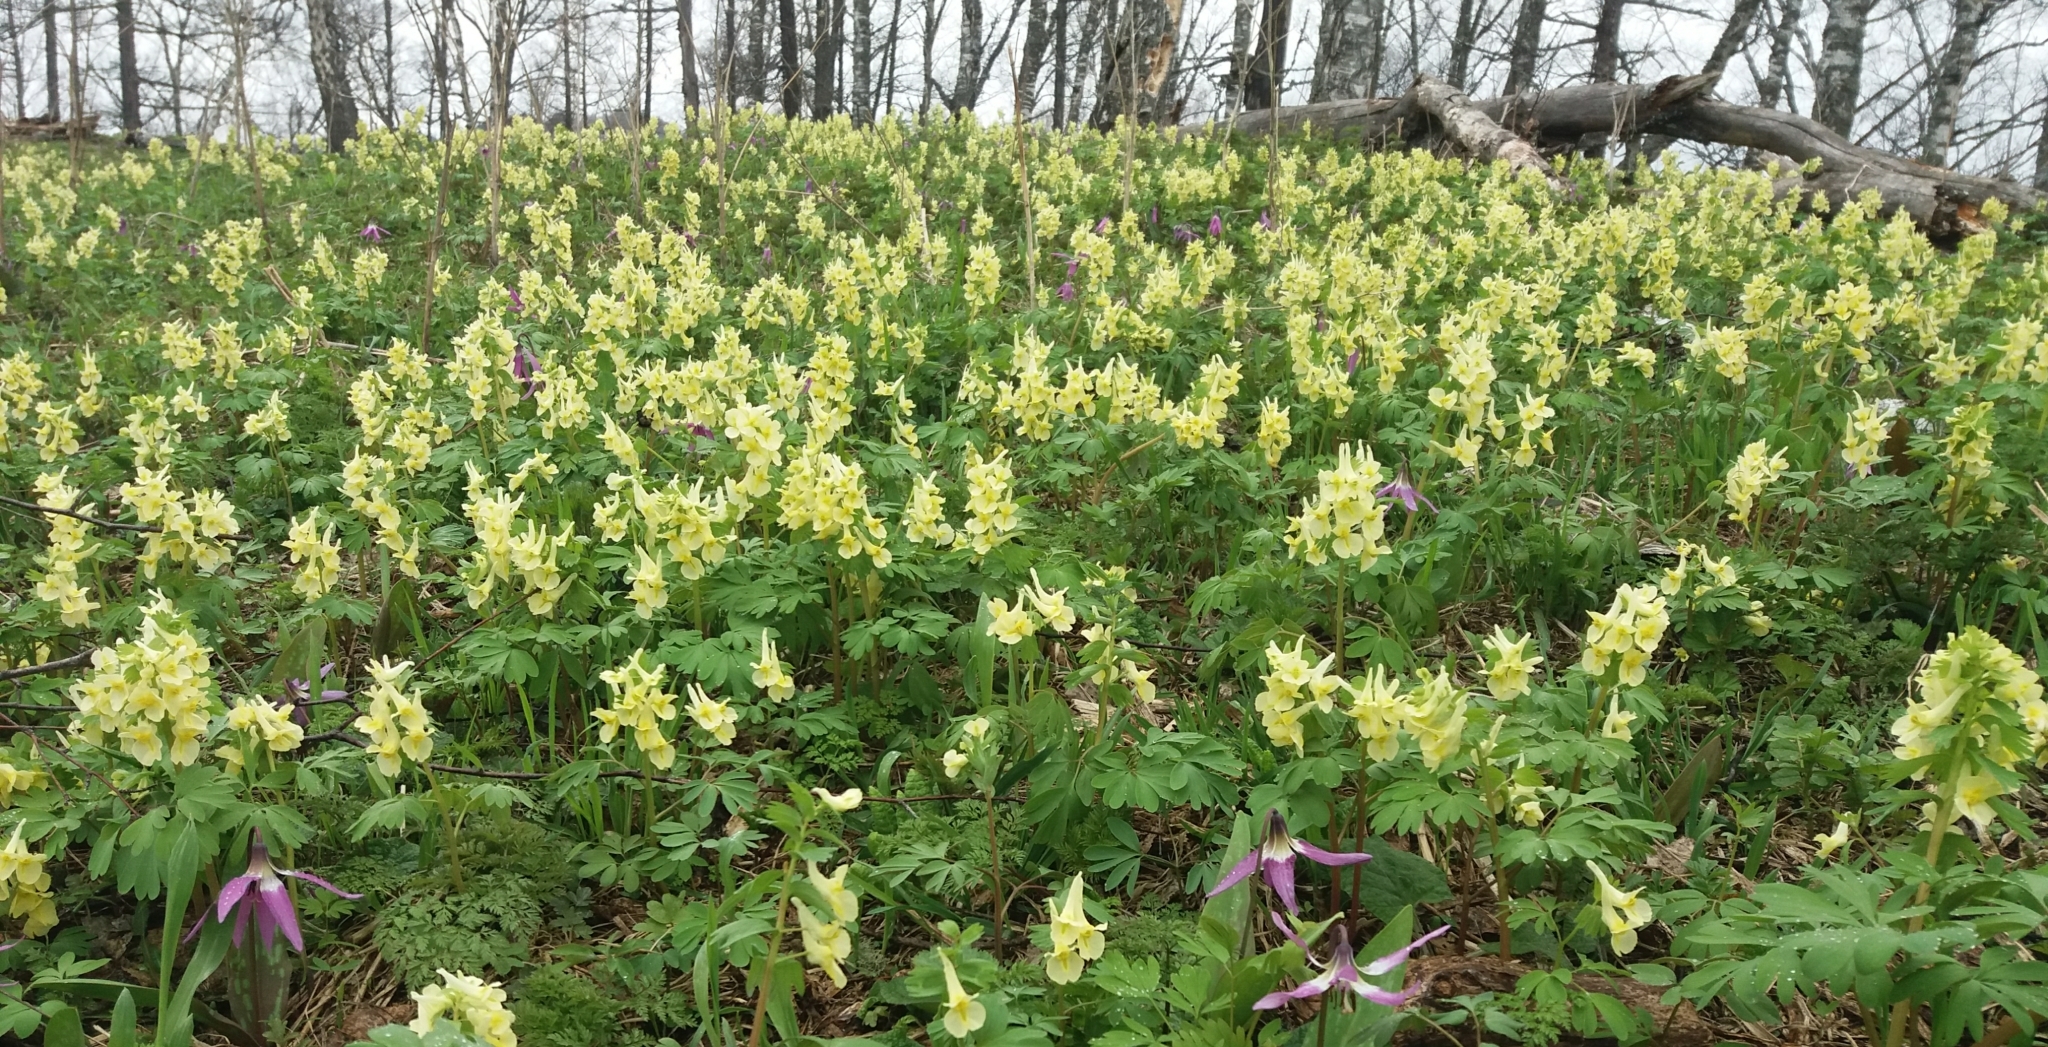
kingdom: Plantae
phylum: Tracheophyta
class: Magnoliopsida
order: Ranunculales
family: Papaveraceae
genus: Corydalis
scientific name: Corydalis bracteata
